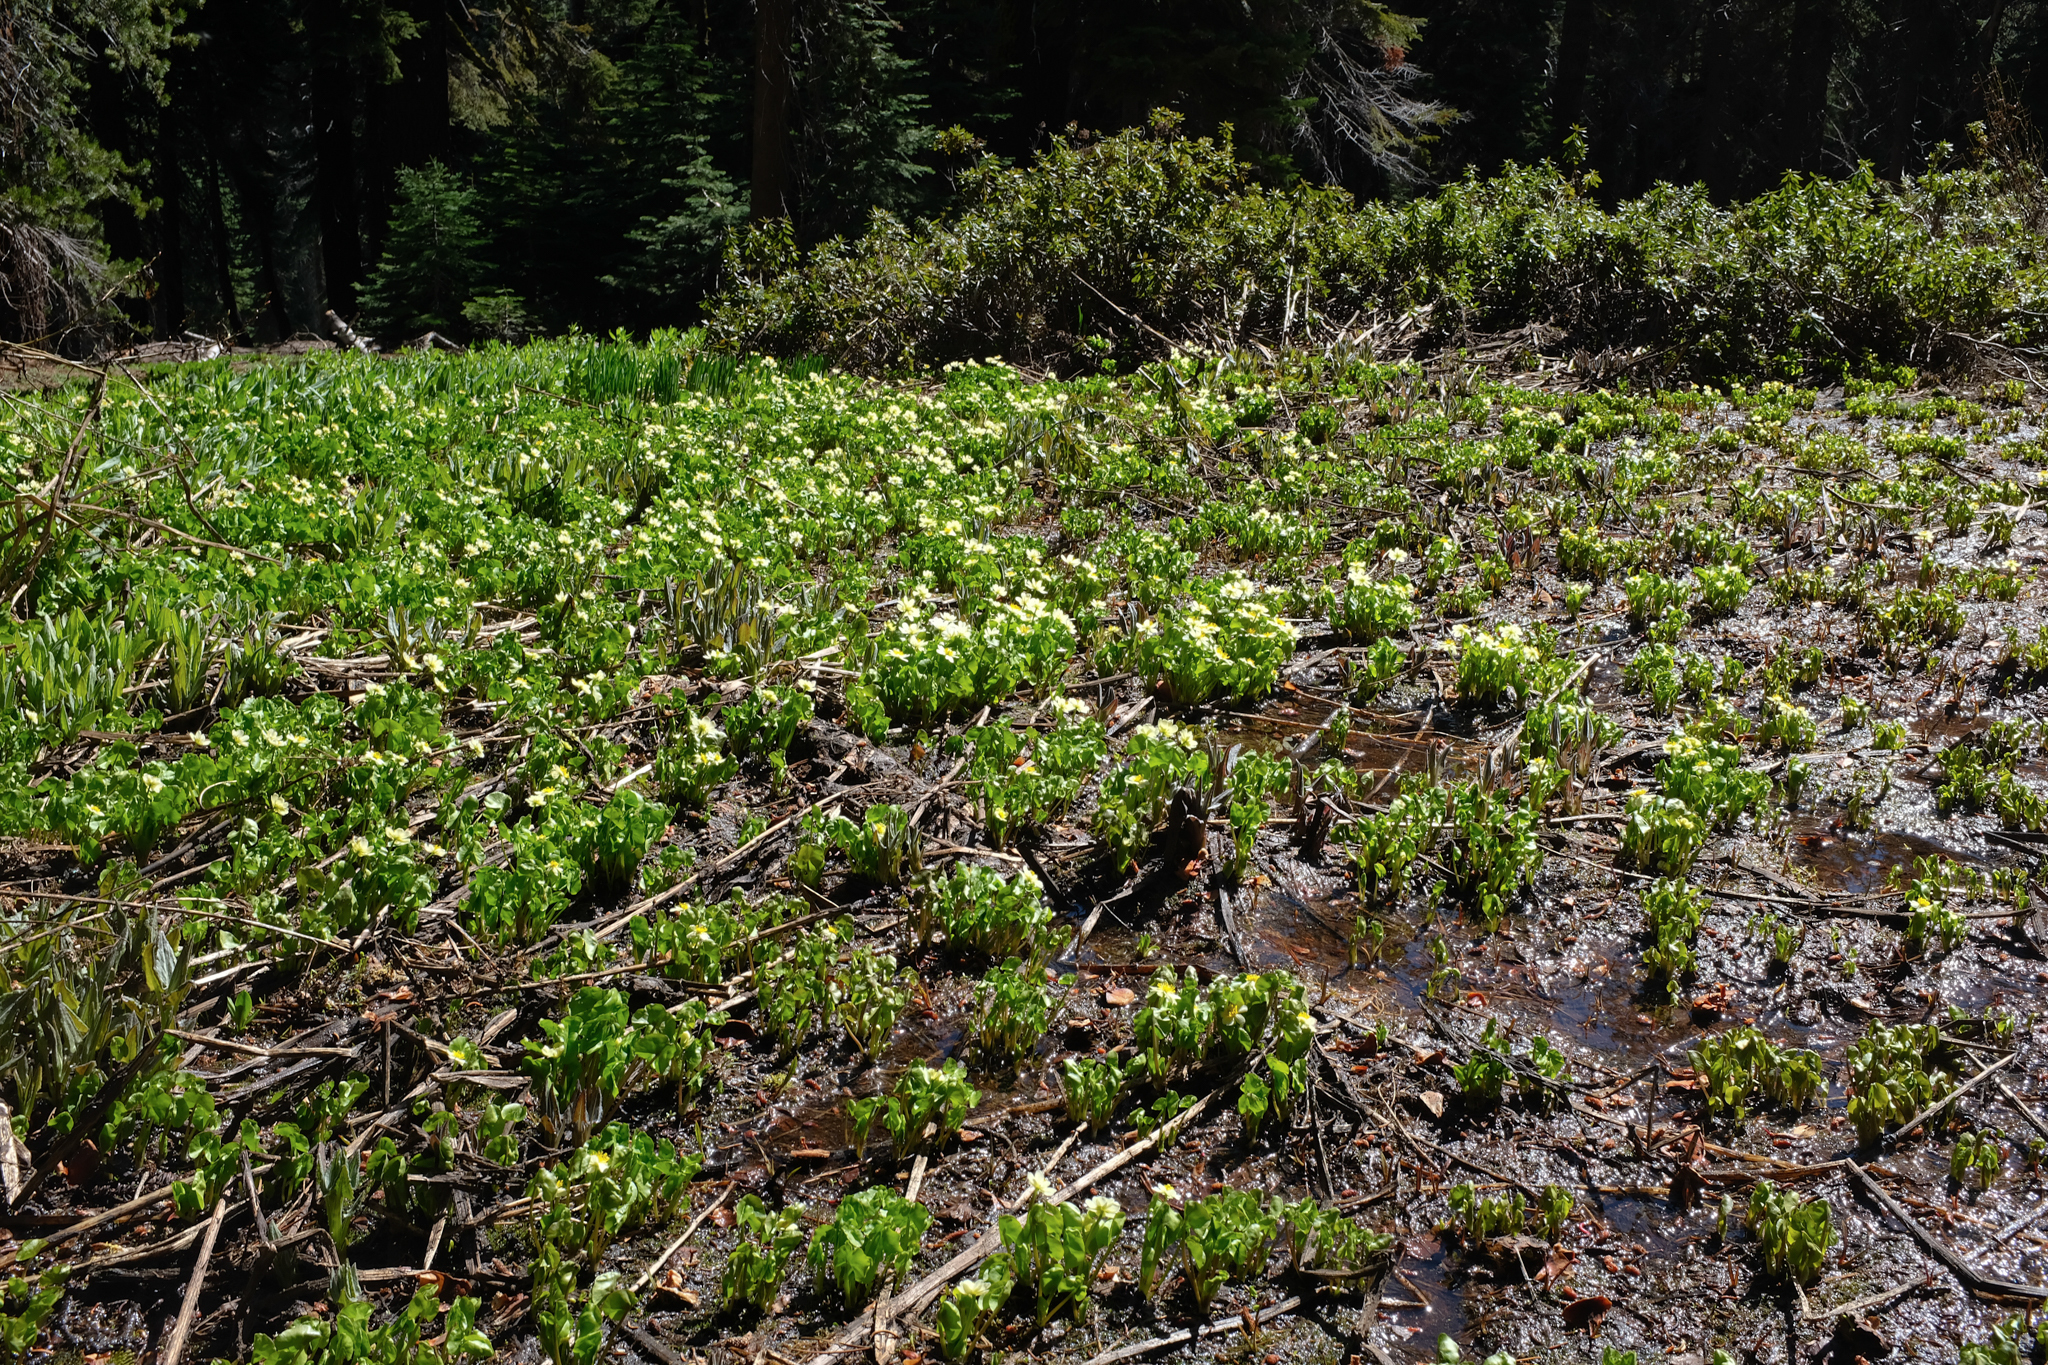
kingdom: Plantae
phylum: Tracheophyta
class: Magnoliopsida
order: Ranunculales
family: Ranunculaceae
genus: Caltha
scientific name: Caltha leptosepala
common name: Elkslip
